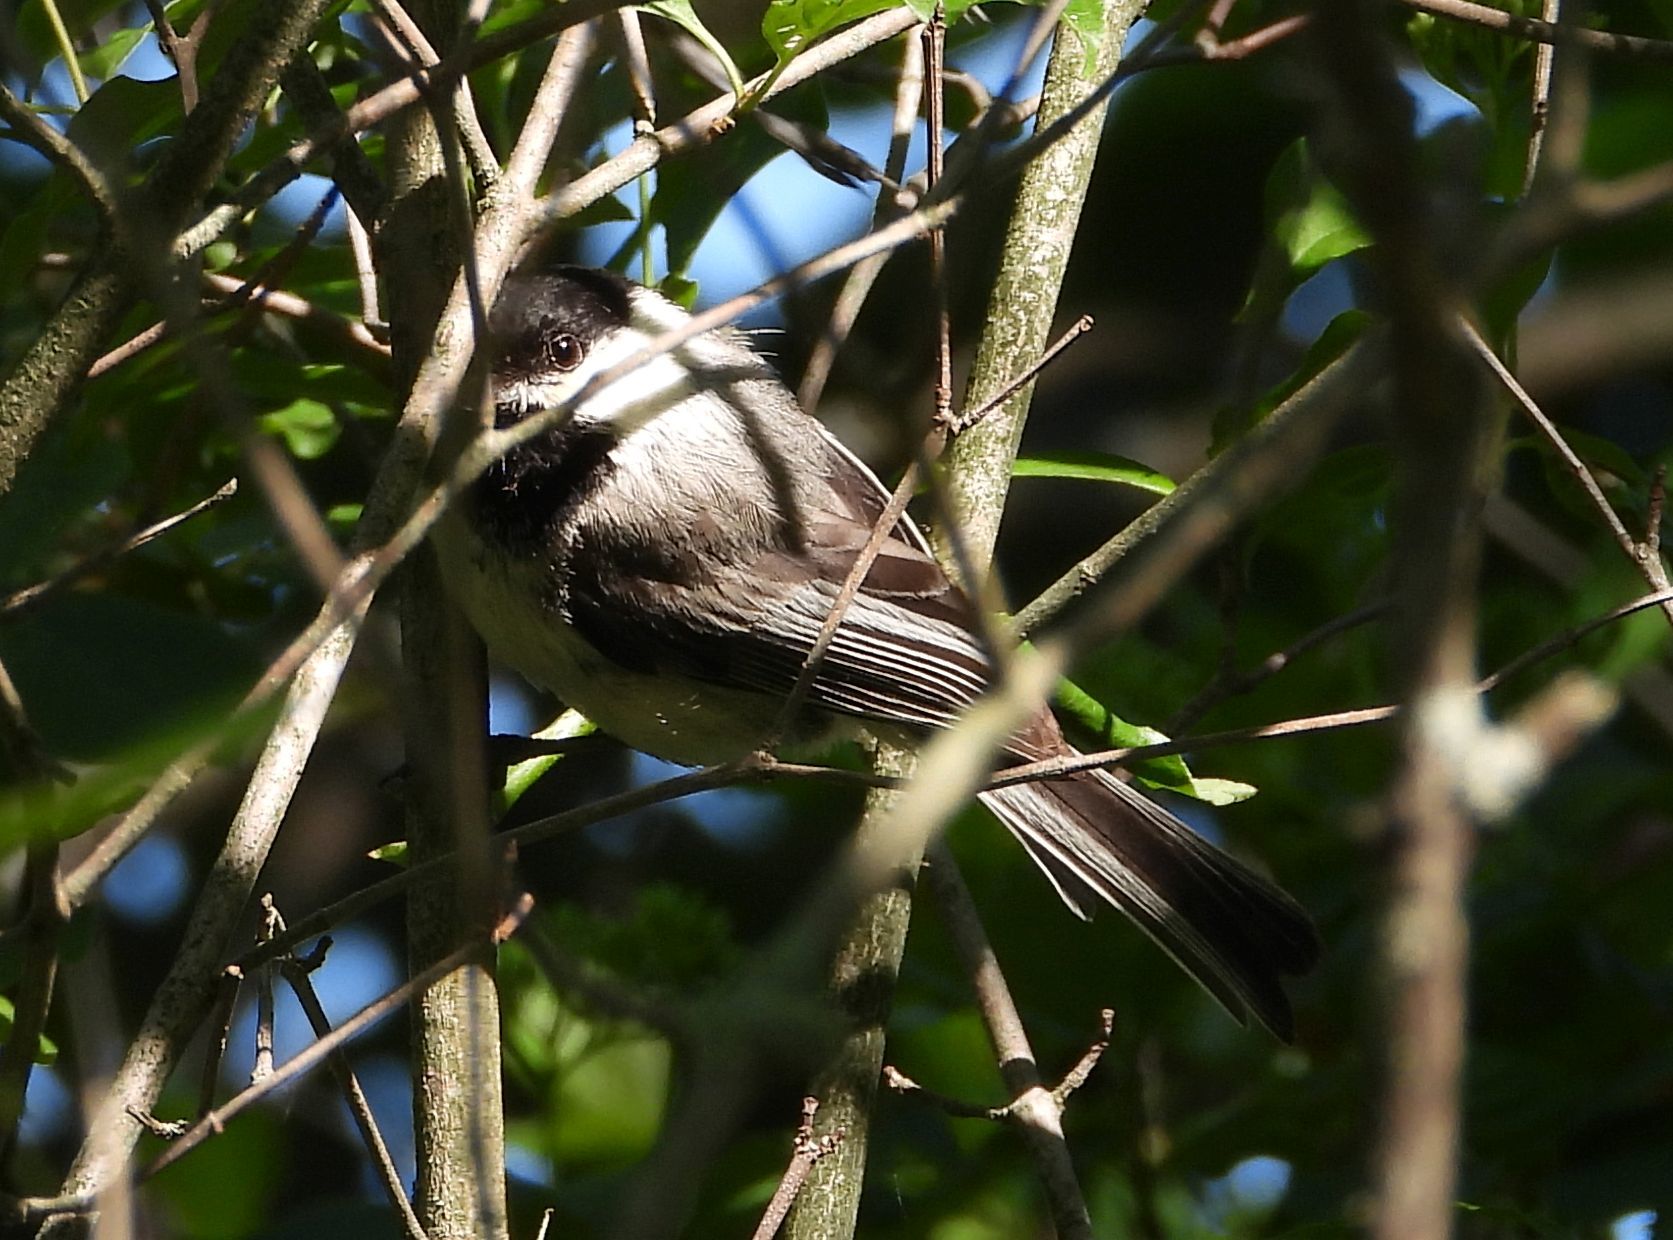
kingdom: Animalia
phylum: Chordata
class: Aves
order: Passeriformes
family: Paridae
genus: Poecile
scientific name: Poecile atricapillus
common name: Black-capped chickadee
